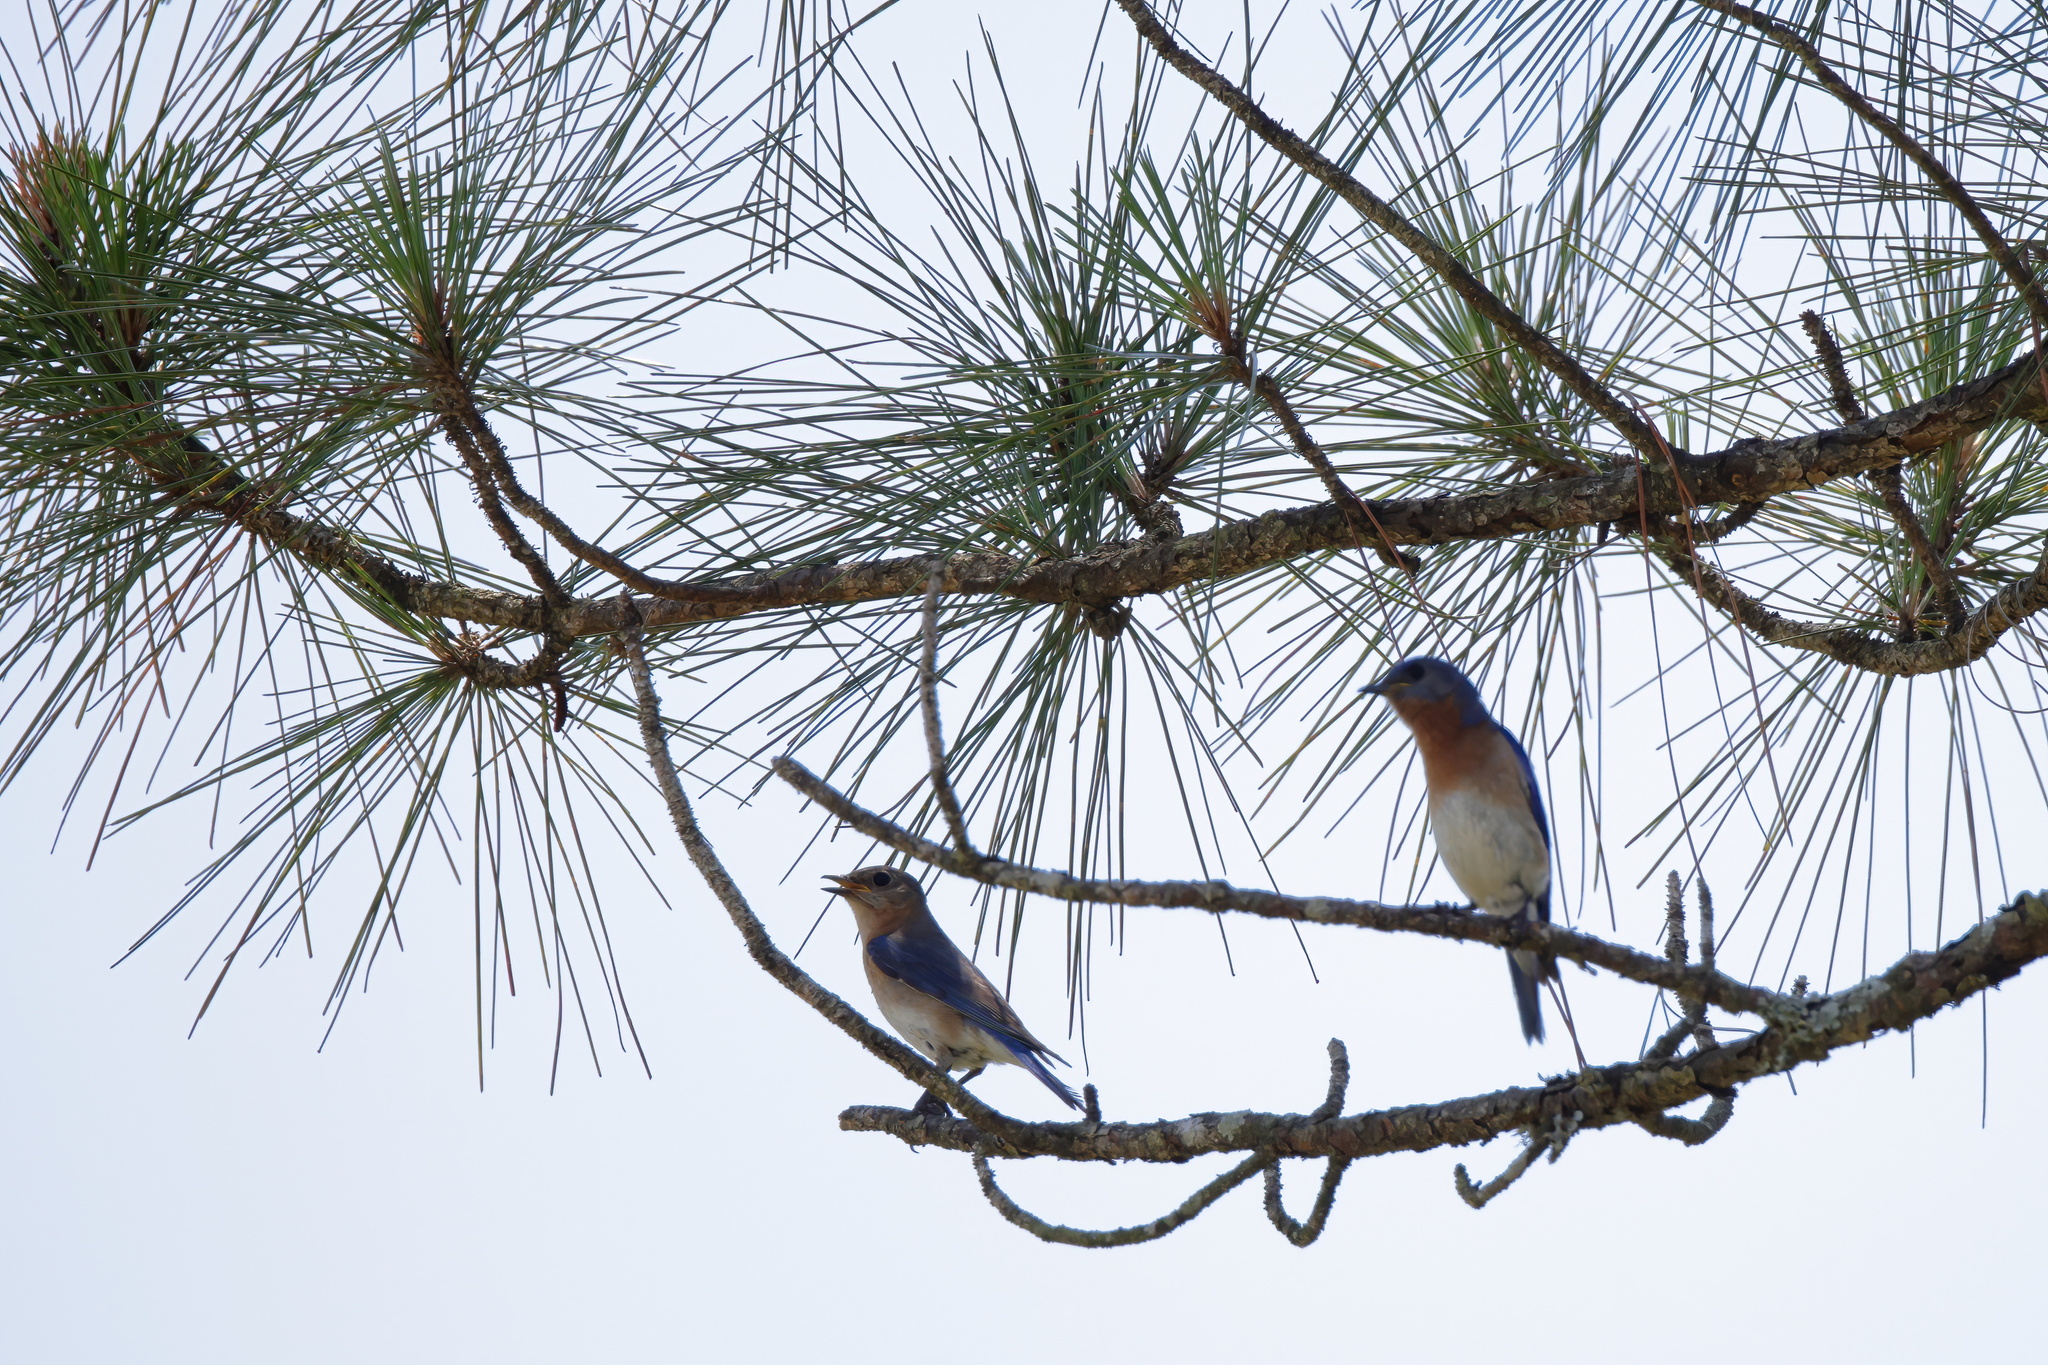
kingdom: Animalia
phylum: Chordata
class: Aves
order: Passeriformes
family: Turdidae
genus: Sialia
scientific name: Sialia sialis
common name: Eastern bluebird
